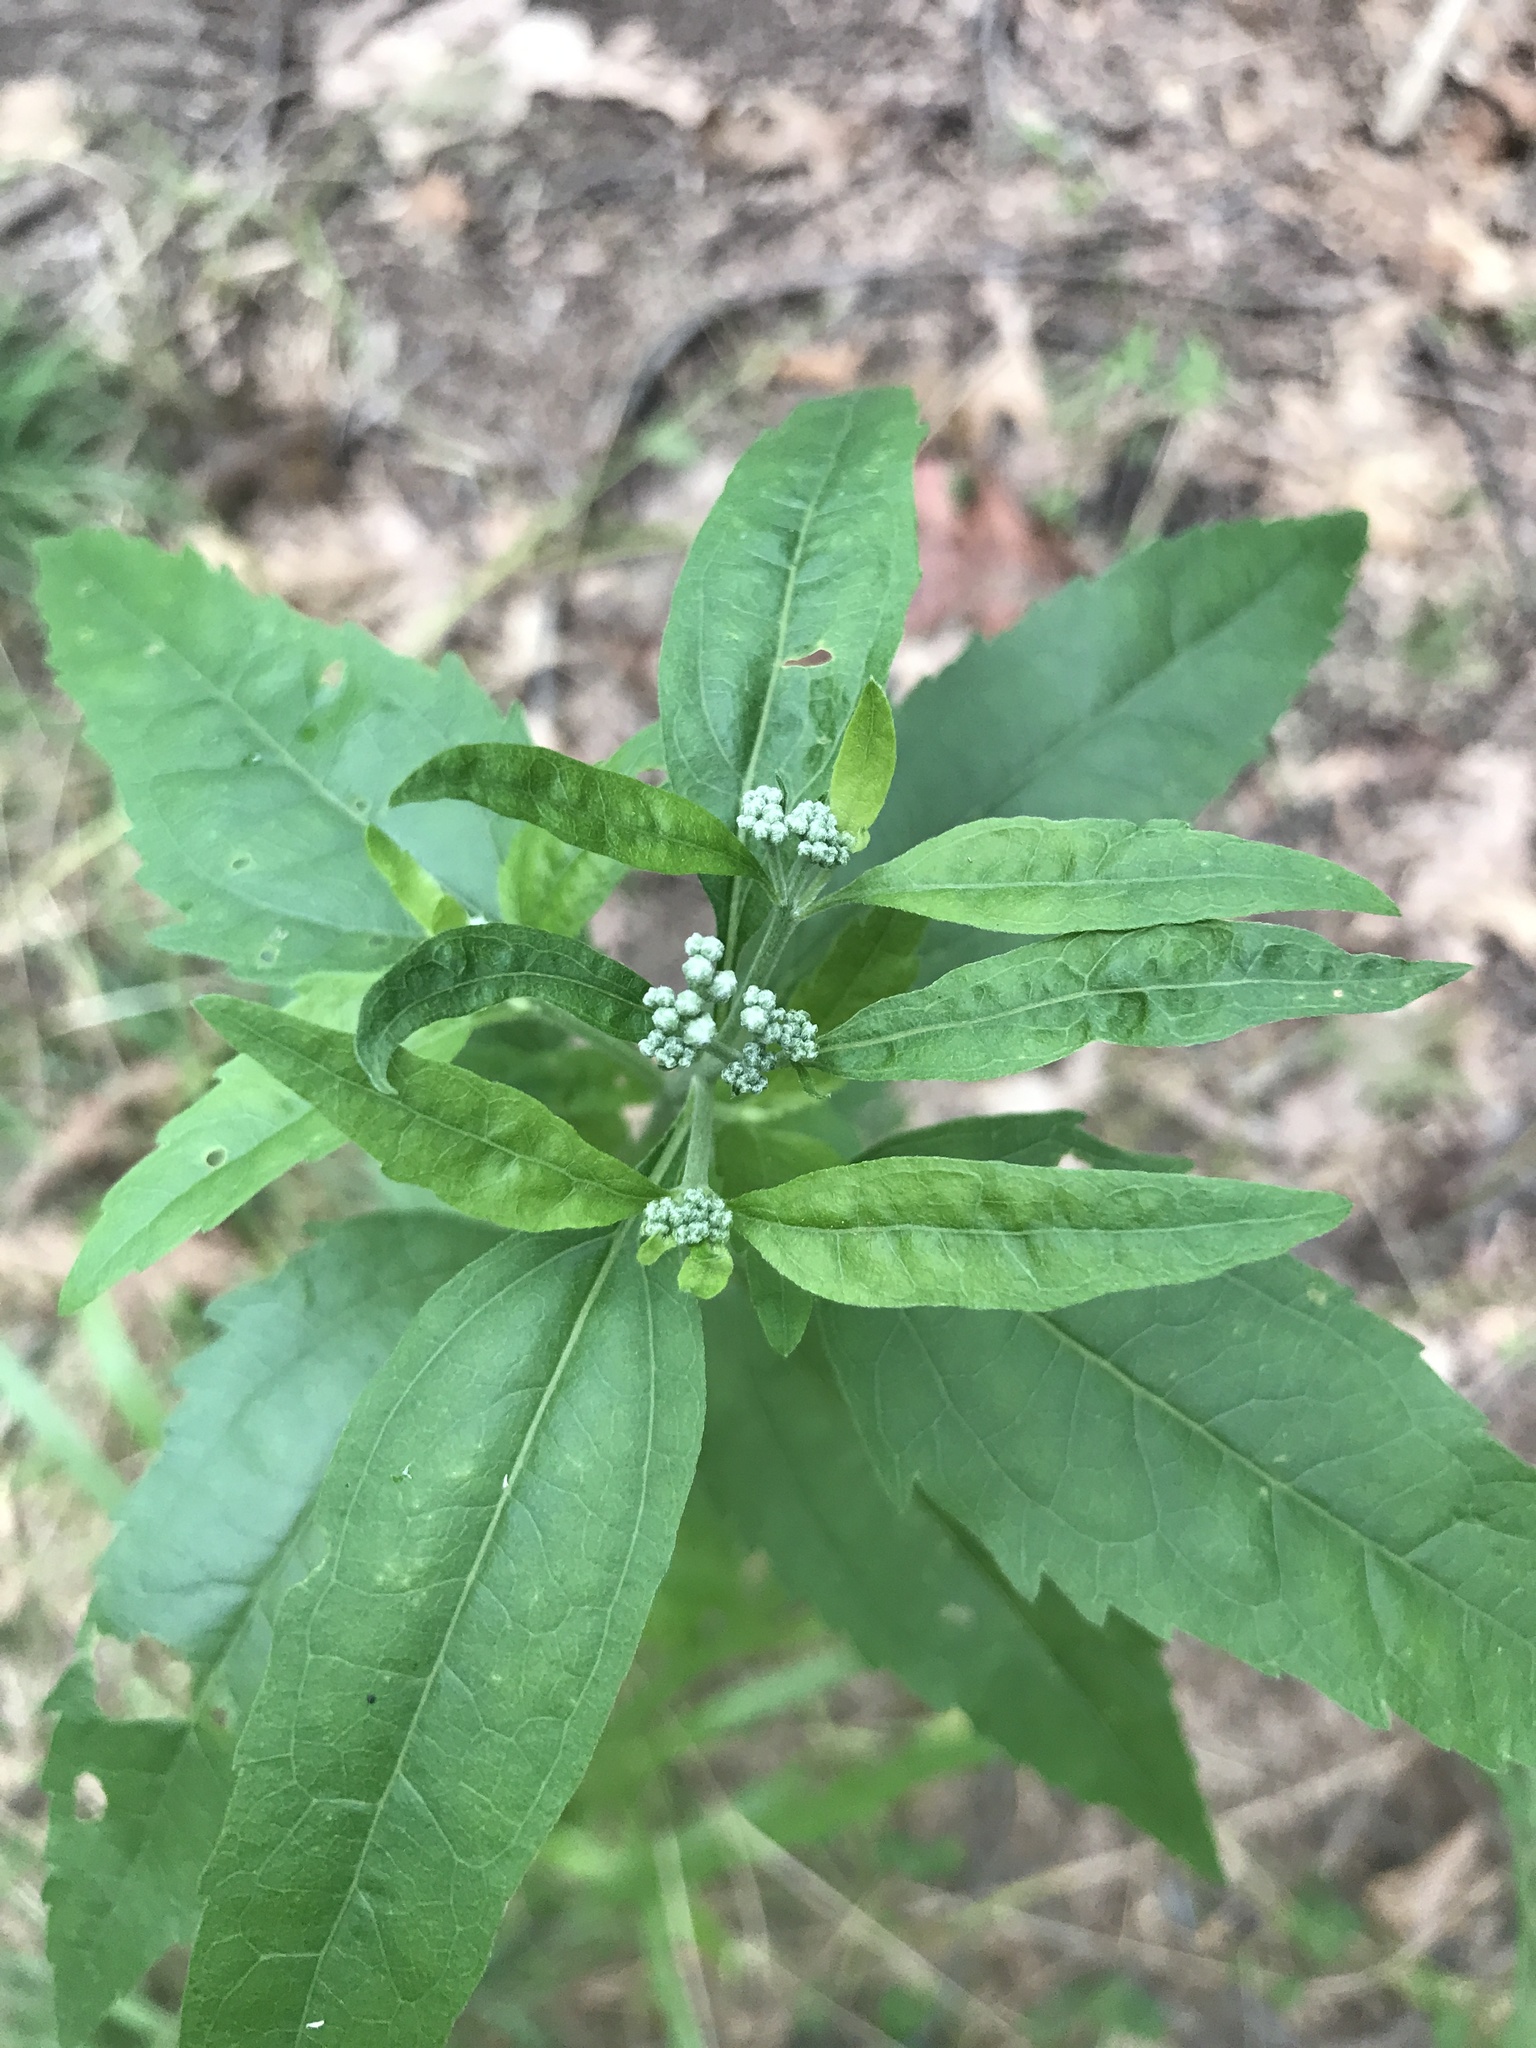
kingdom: Plantae
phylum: Tracheophyta
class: Magnoliopsida
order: Asterales
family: Asteraceae
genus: Eupatorium
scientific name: Eupatorium serotinum
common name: Late boneset
